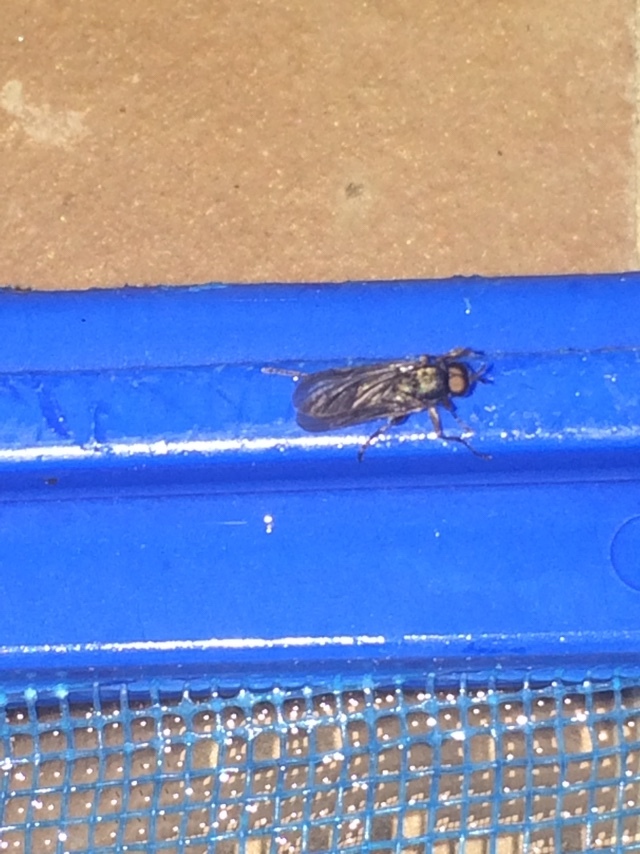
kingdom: Animalia
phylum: Arthropoda
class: Insecta
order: Diptera
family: Stratiomyidae
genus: Inopus
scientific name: Inopus rubriceps
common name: Soldier fly
